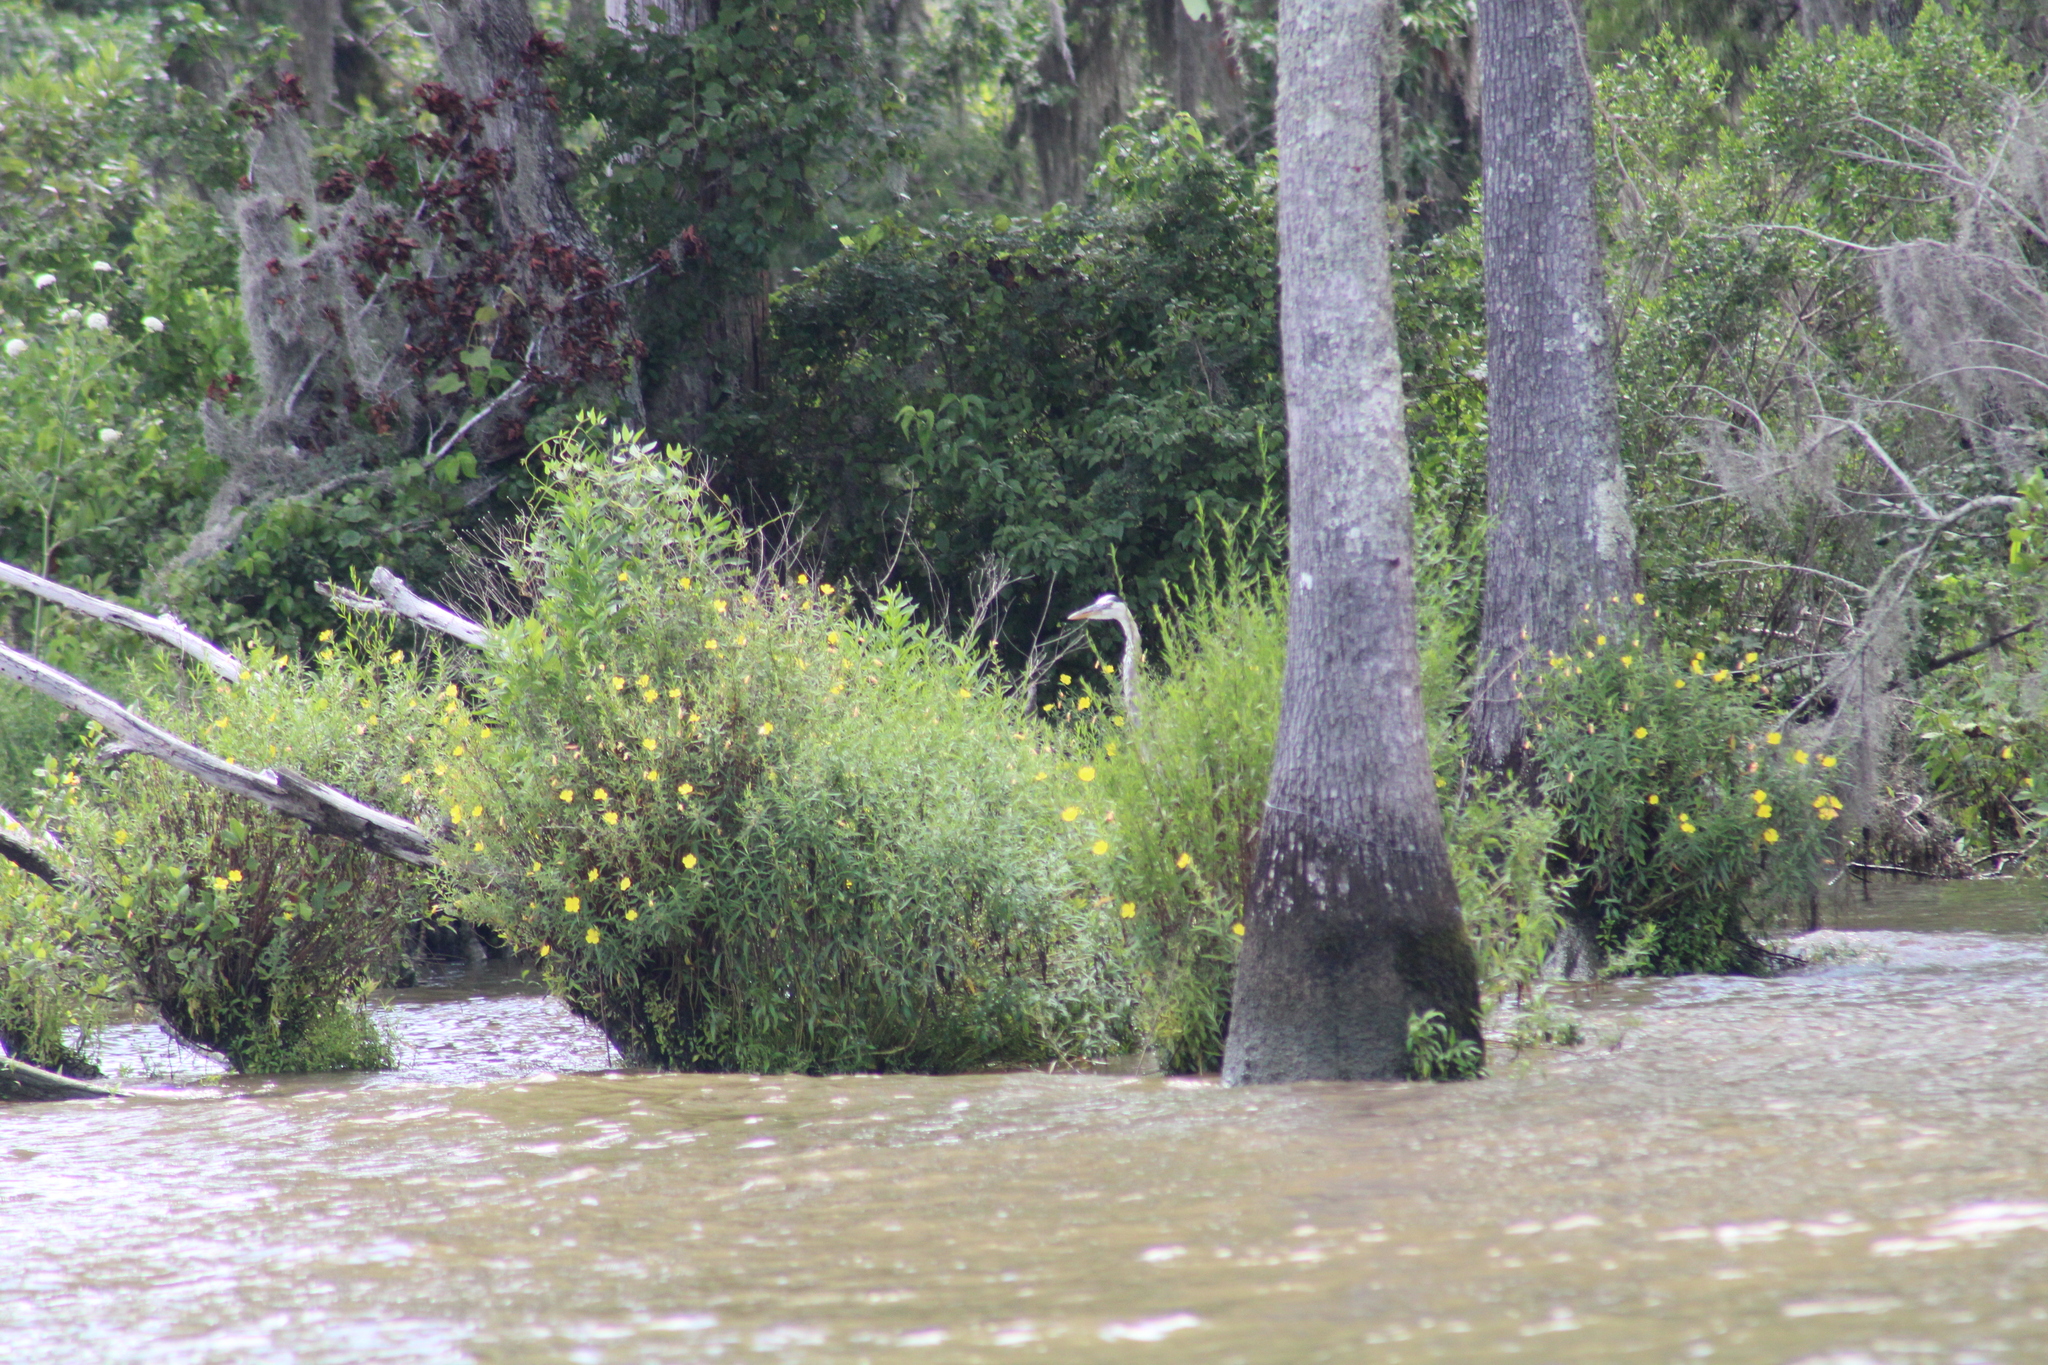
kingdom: Animalia
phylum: Chordata
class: Aves
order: Pelecaniformes
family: Ardeidae
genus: Ardea
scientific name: Ardea herodias
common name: Great blue heron
